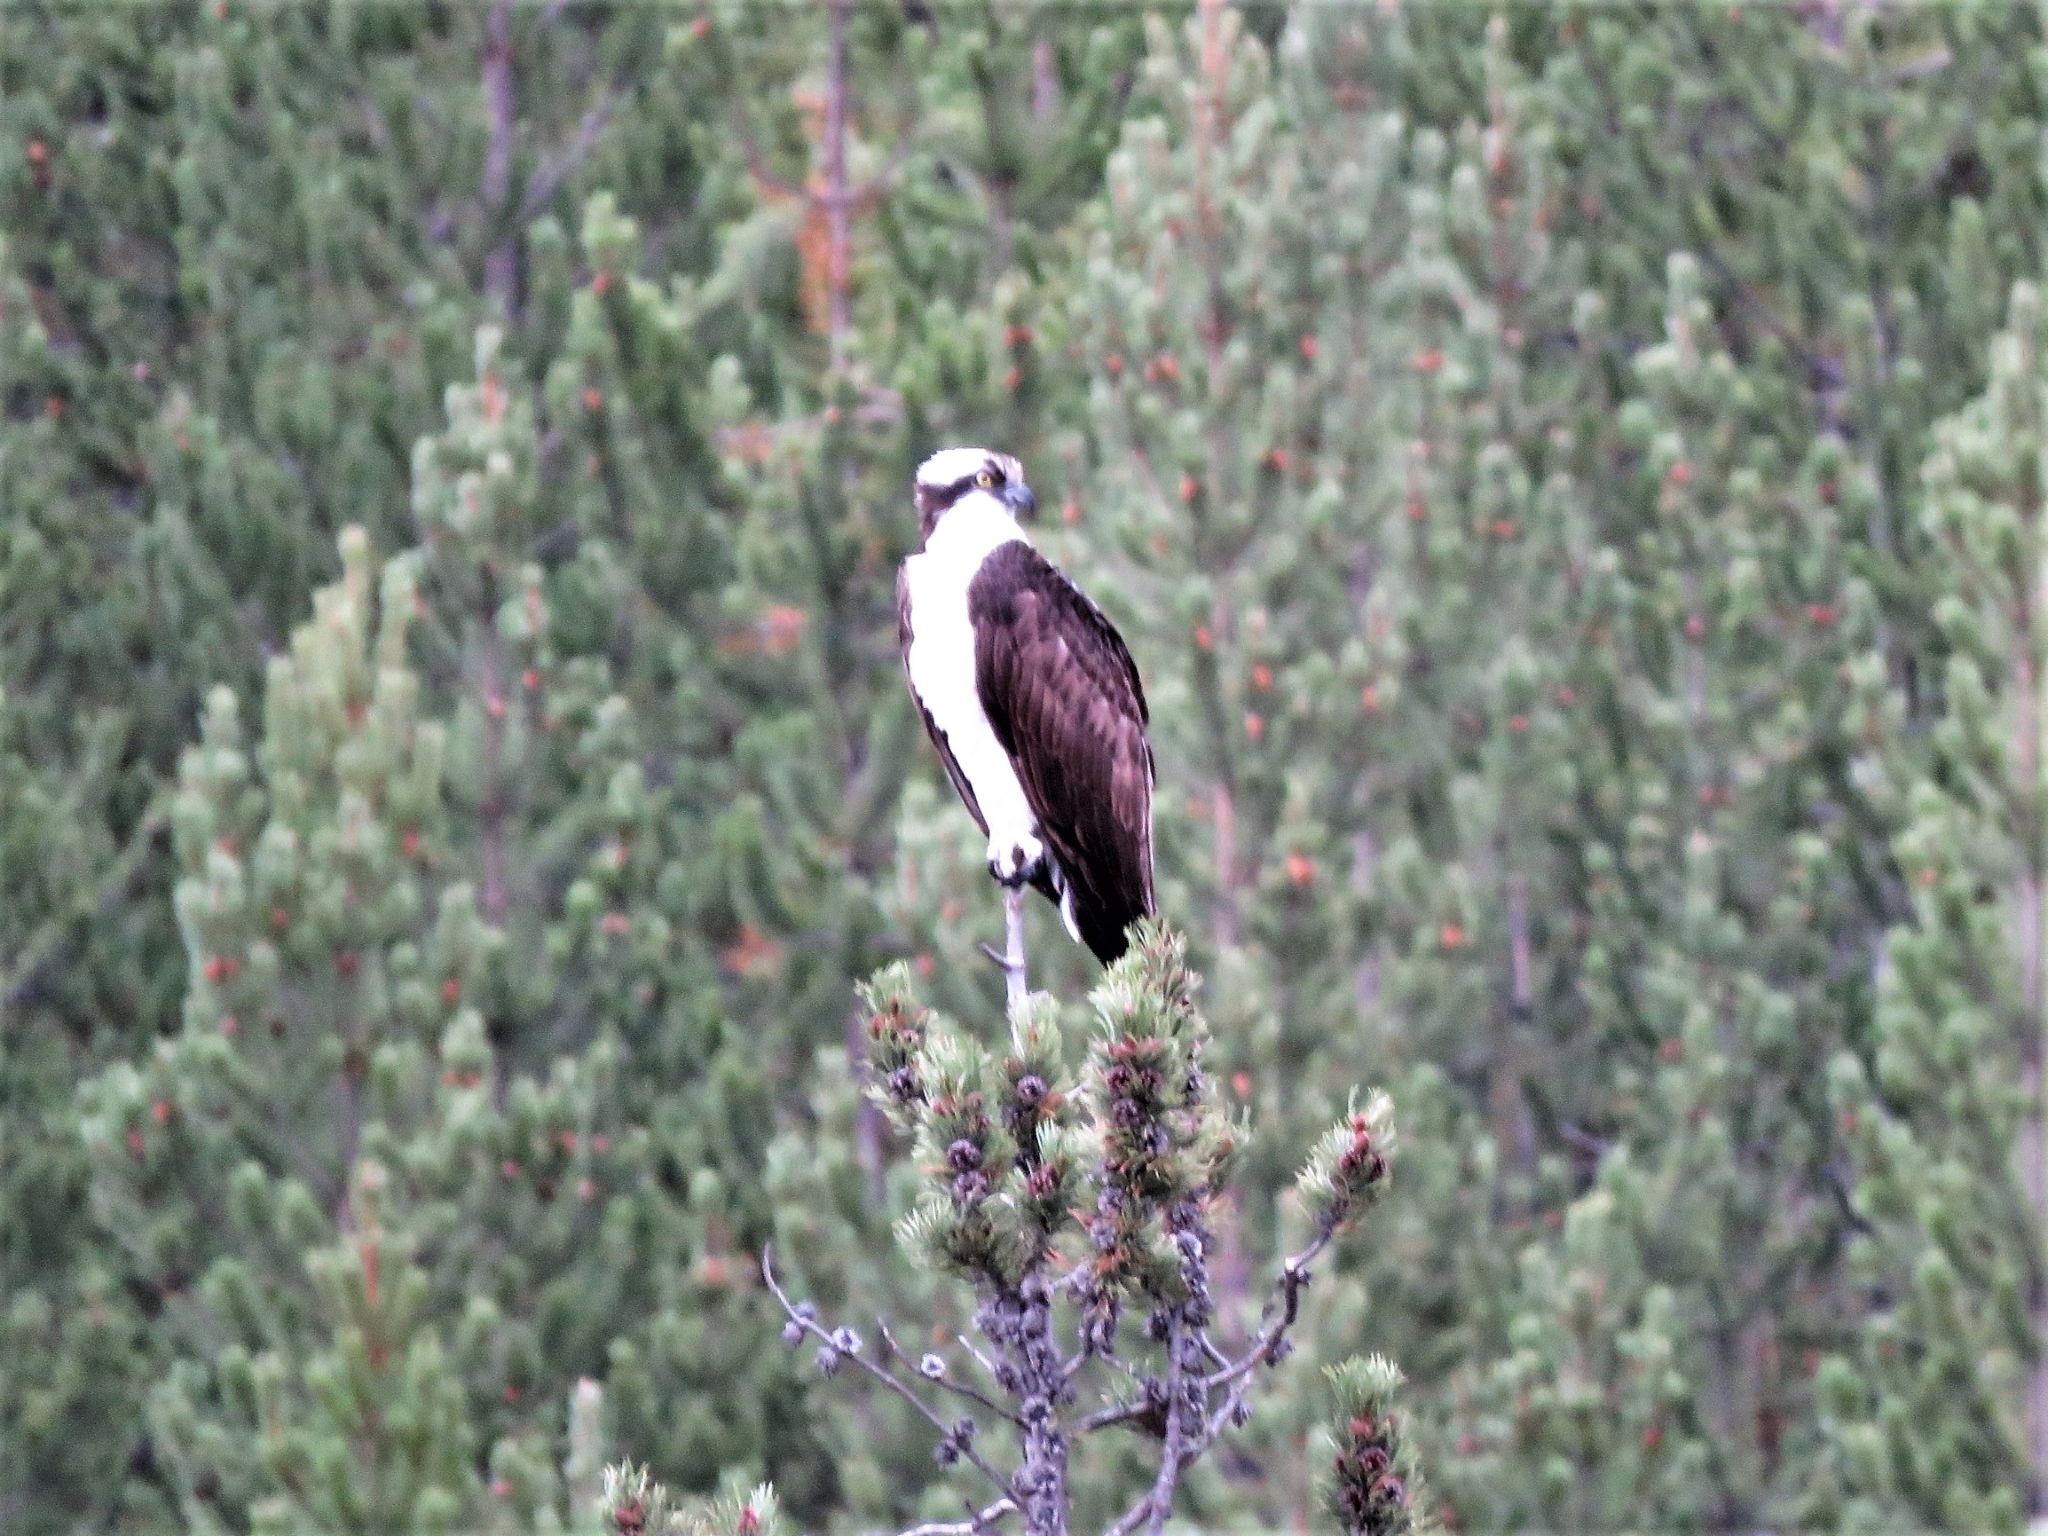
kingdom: Animalia
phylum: Chordata
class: Aves
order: Accipitriformes
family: Pandionidae
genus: Pandion
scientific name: Pandion haliaetus
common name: Osprey
